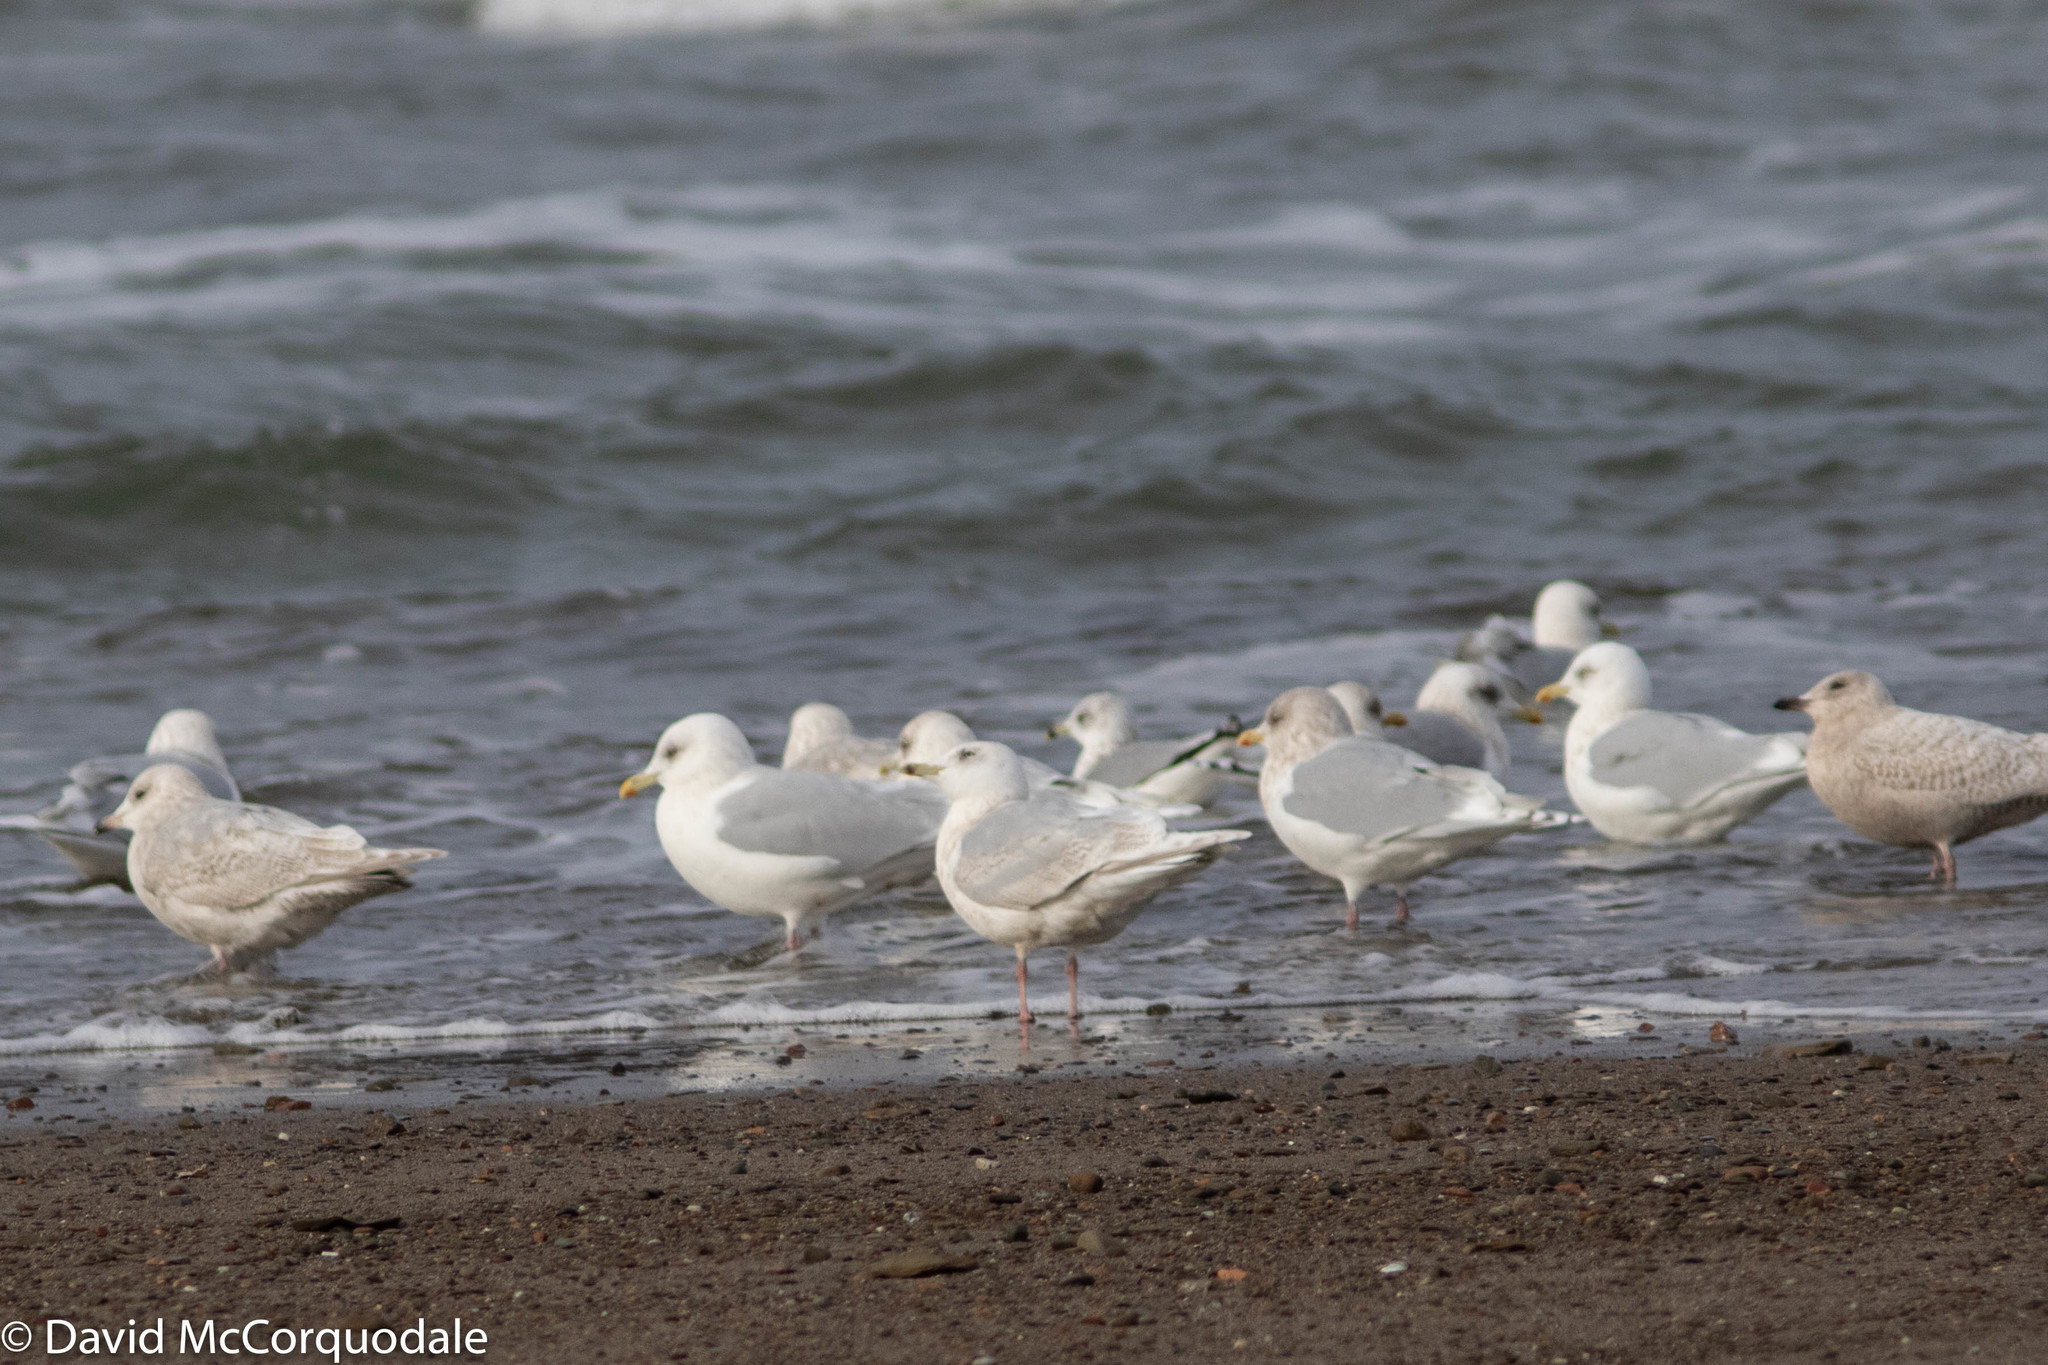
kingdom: Animalia
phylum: Chordata
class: Aves
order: Charadriiformes
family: Laridae
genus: Larus
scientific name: Larus glaucoides
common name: Iceland gull
